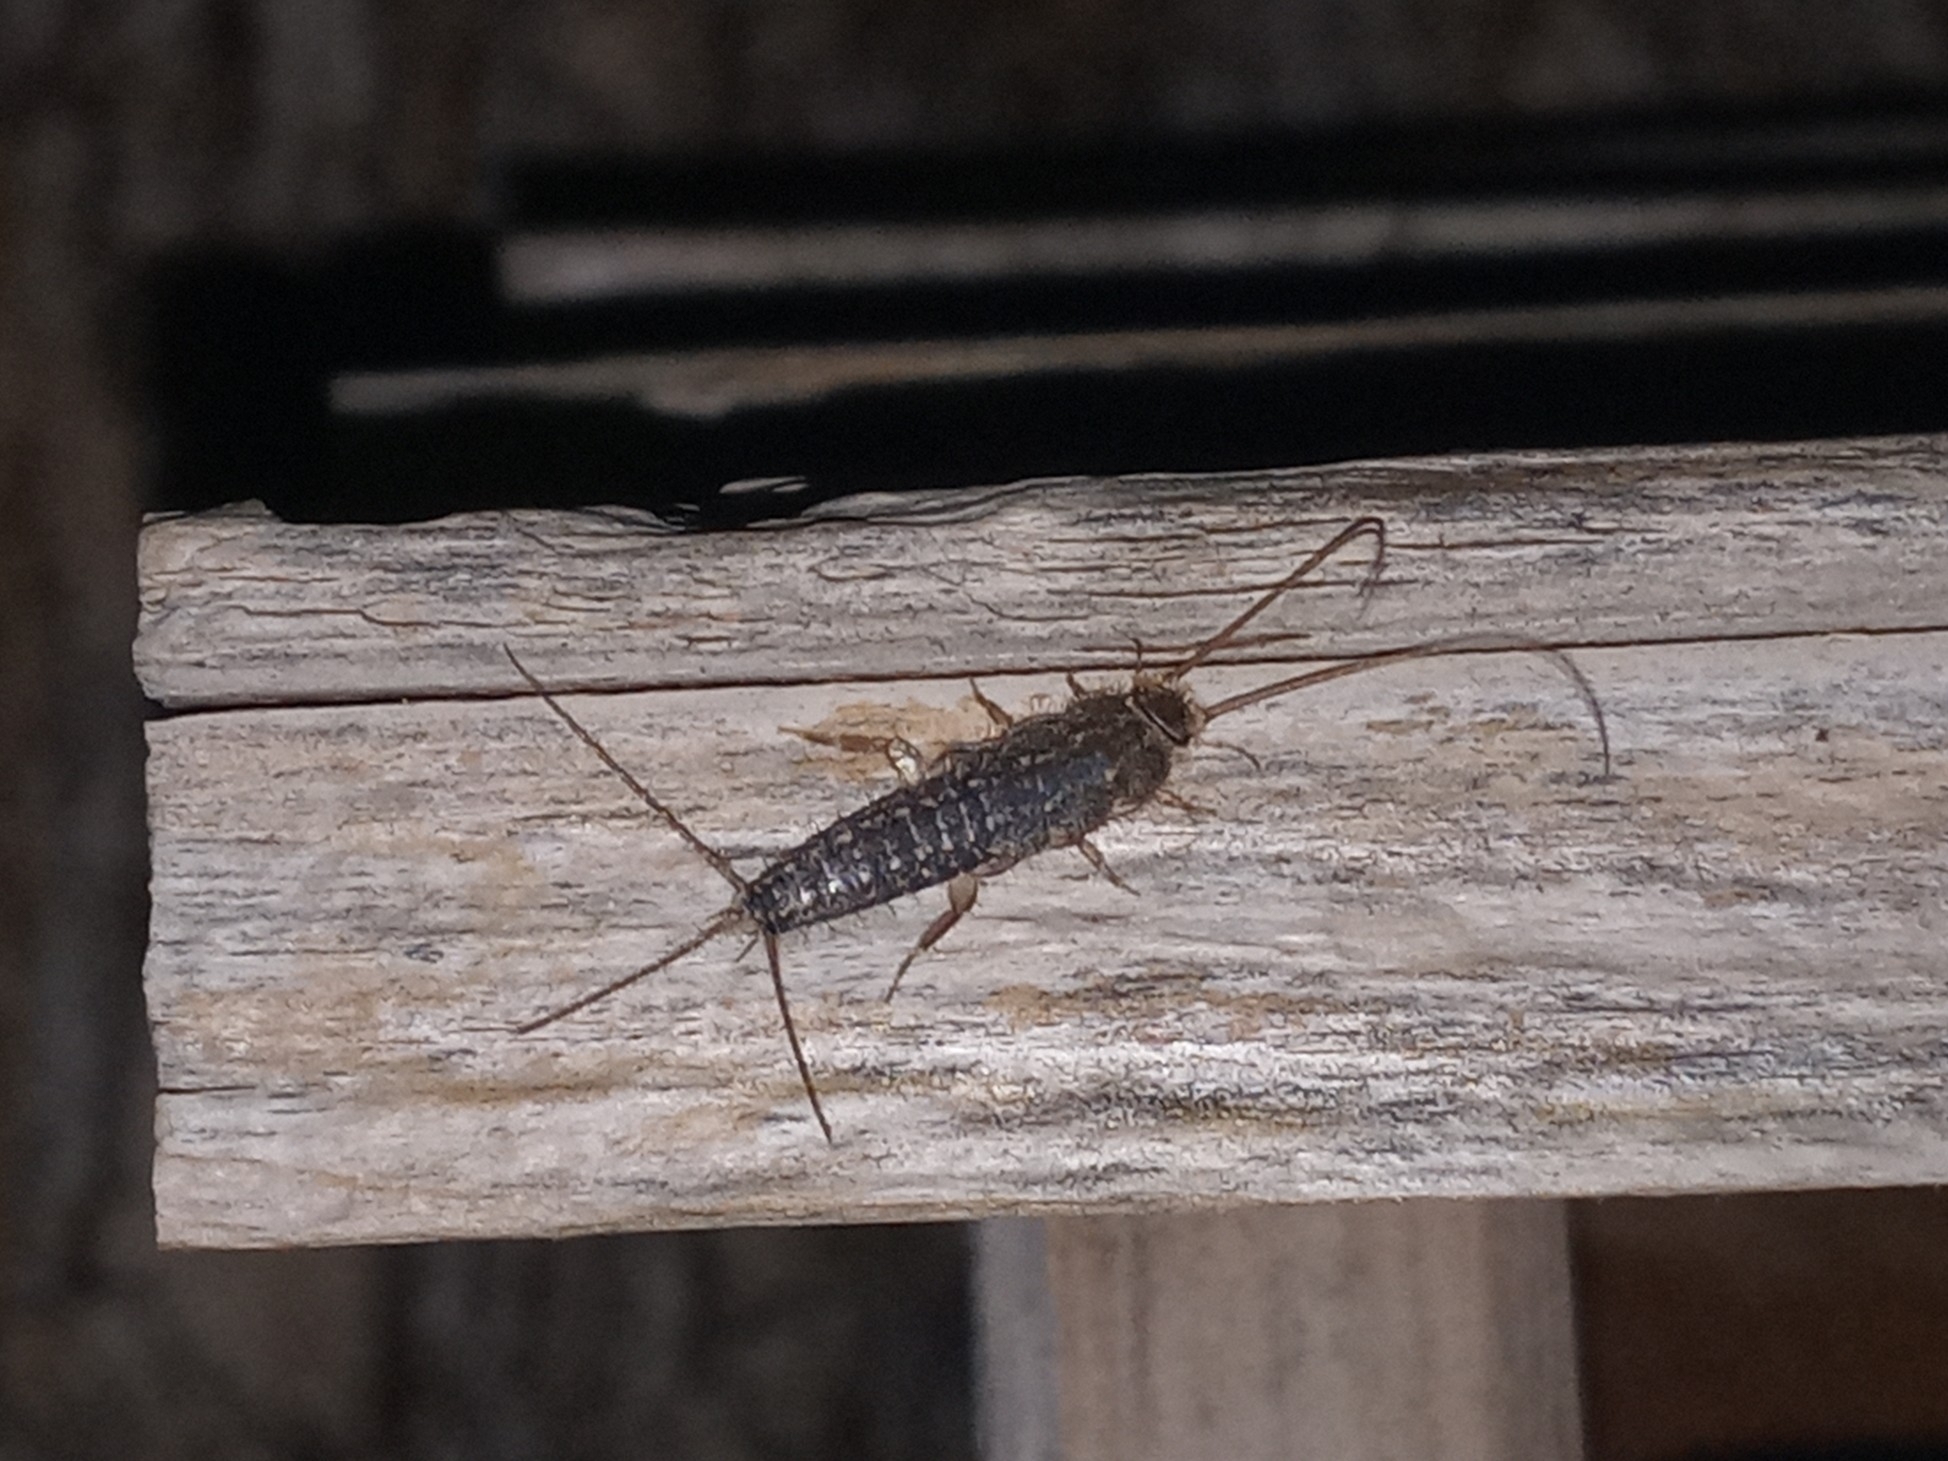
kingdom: Animalia
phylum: Arthropoda
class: Insecta
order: Zygentoma
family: Lepismatidae
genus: Ctenolepisma
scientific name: Ctenolepisma lineata
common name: Four-lined silverfish
